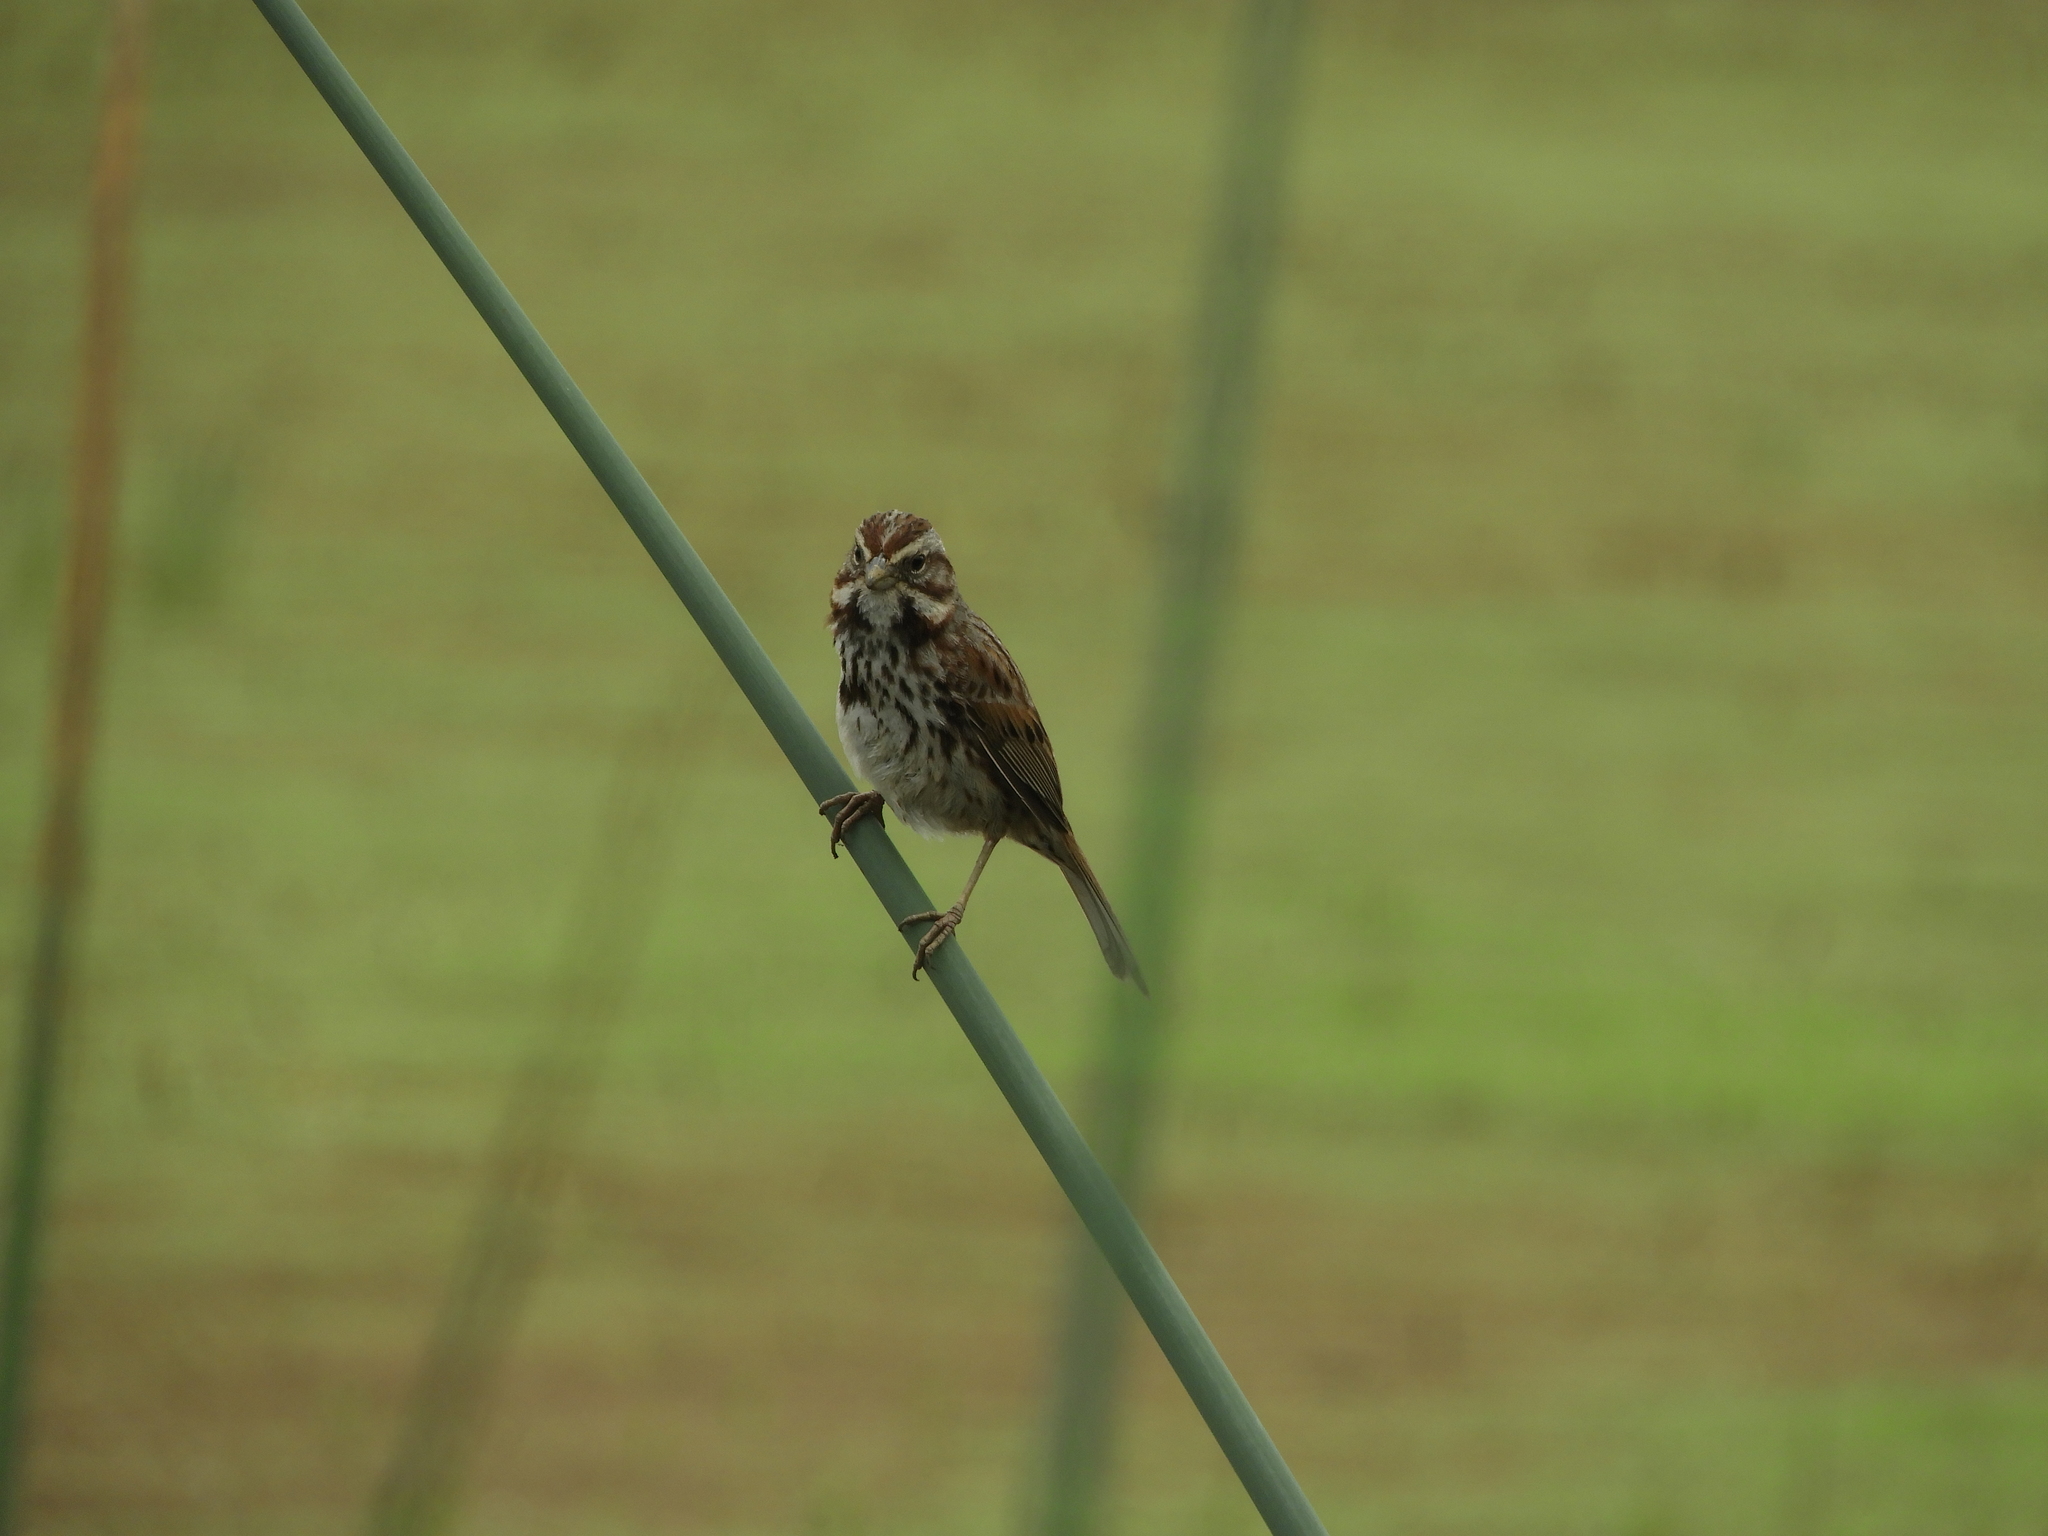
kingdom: Animalia
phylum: Chordata
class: Aves
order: Passeriformes
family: Passerellidae
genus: Melospiza
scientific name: Melospiza melodia
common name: Song sparrow
